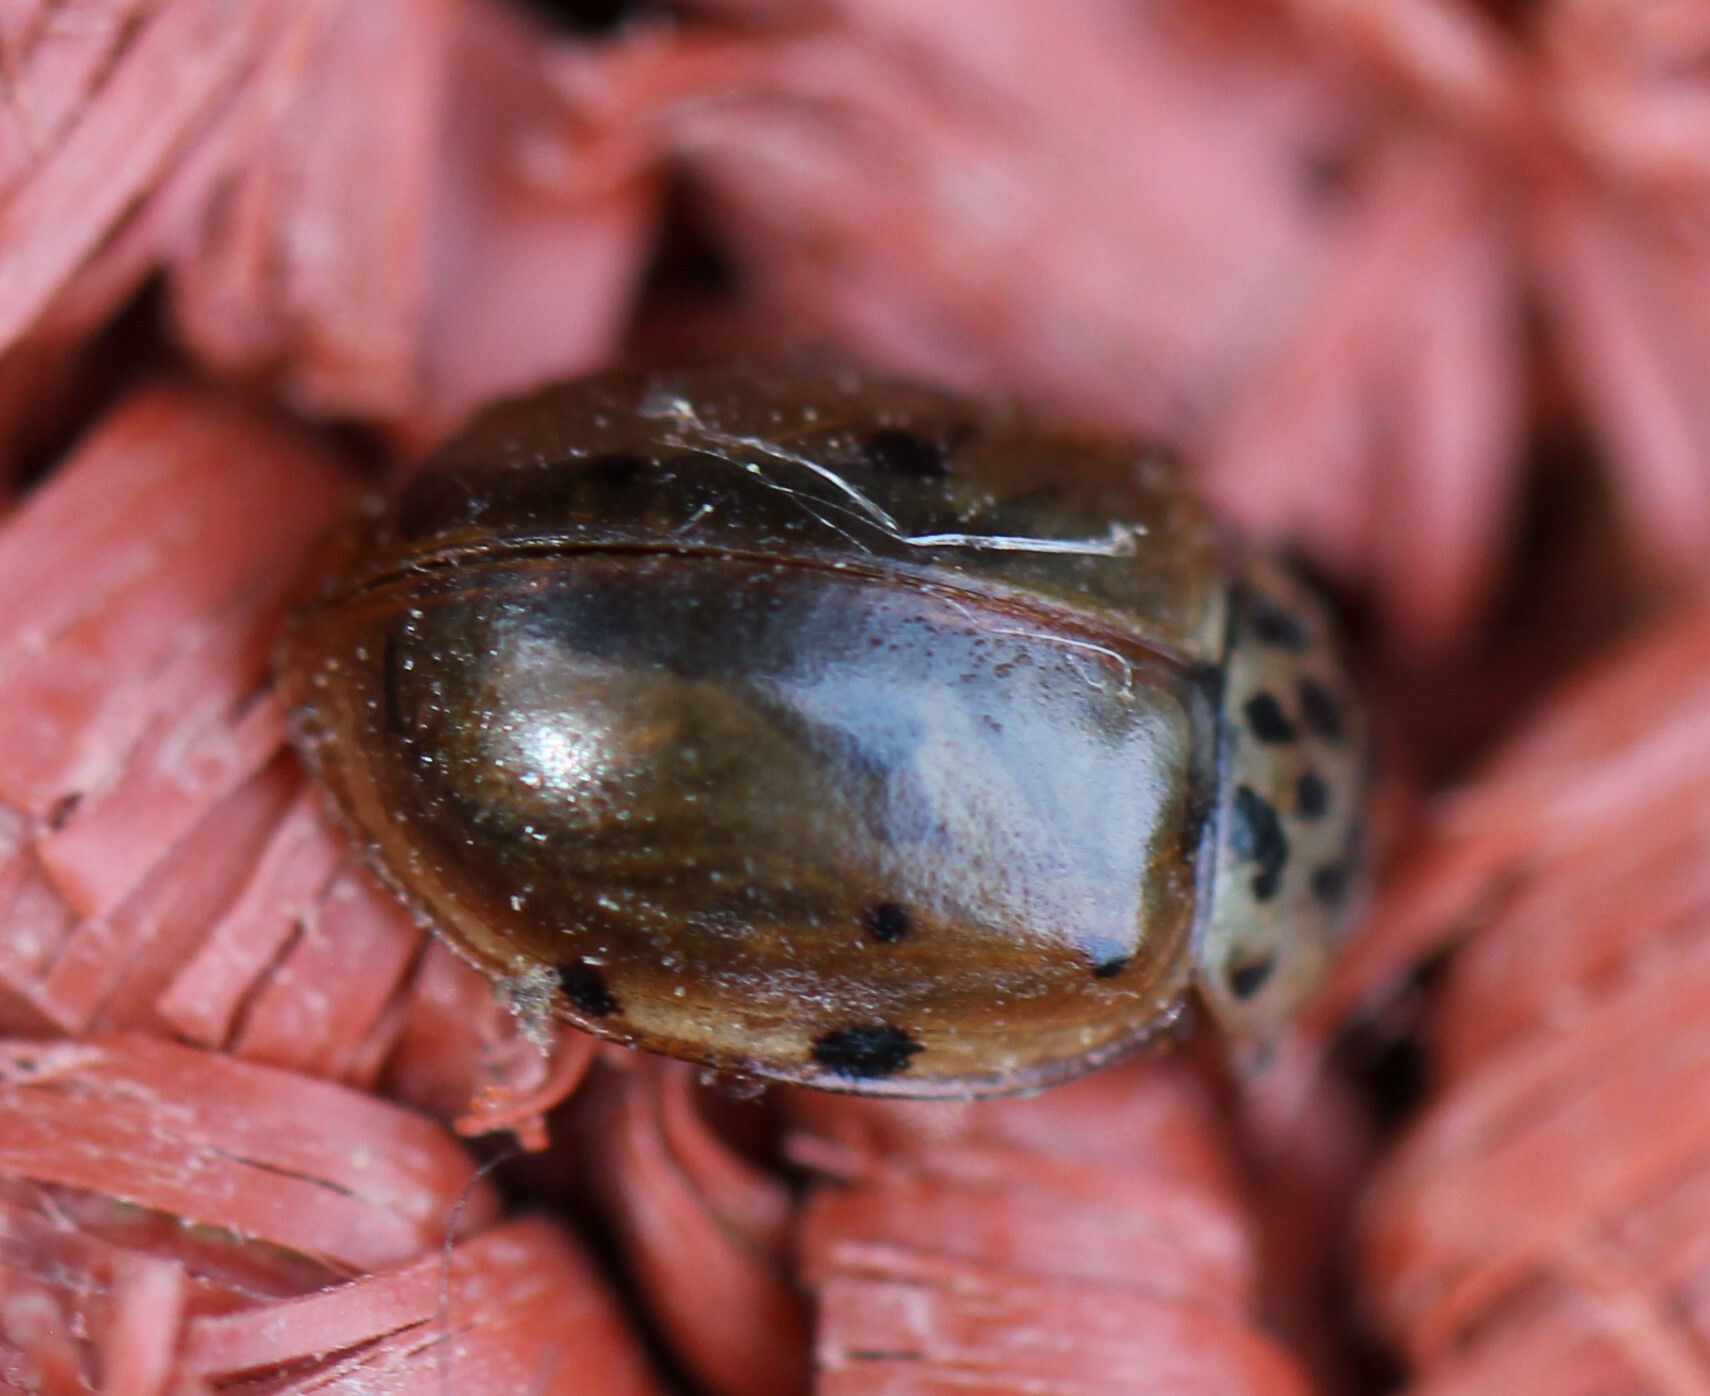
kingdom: Animalia
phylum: Arthropoda
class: Insecta
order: Coleoptera
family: Coccinellidae
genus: Harmonia
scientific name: Harmonia quadripunctata
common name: Cream-streaked ladybird
